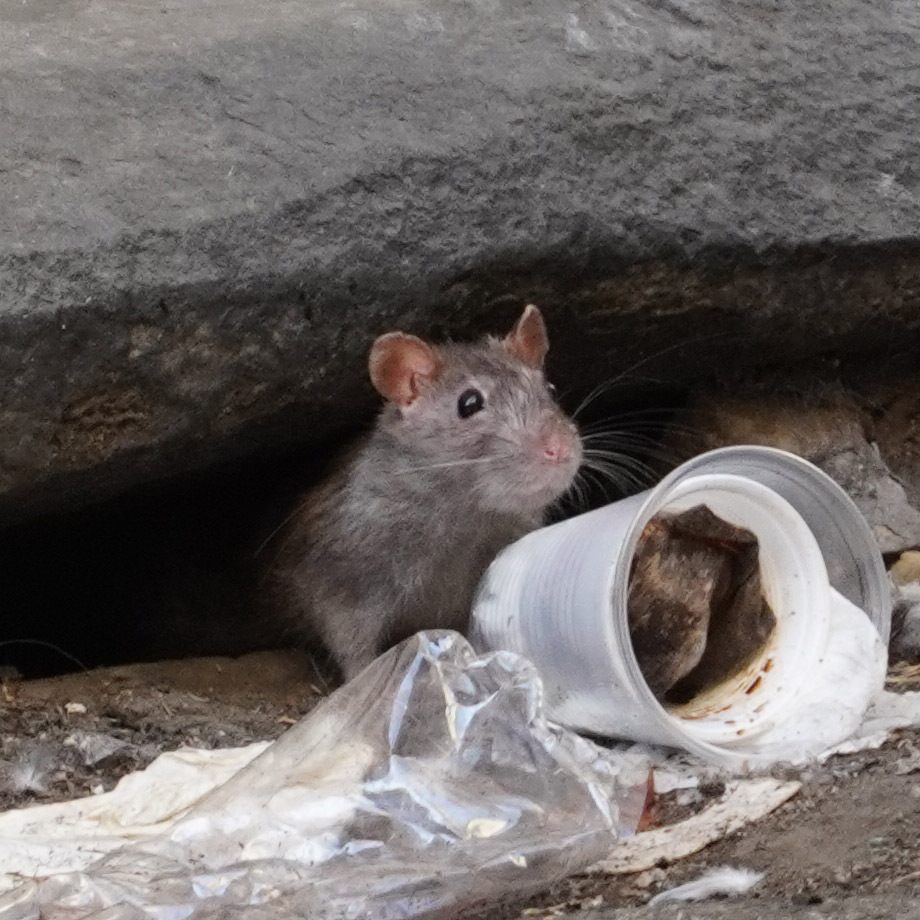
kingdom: Animalia
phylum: Chordata
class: Mammalia
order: Rodentia
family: Muridae
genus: Rattus
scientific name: Rattus norvegicus
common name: Brown rat
